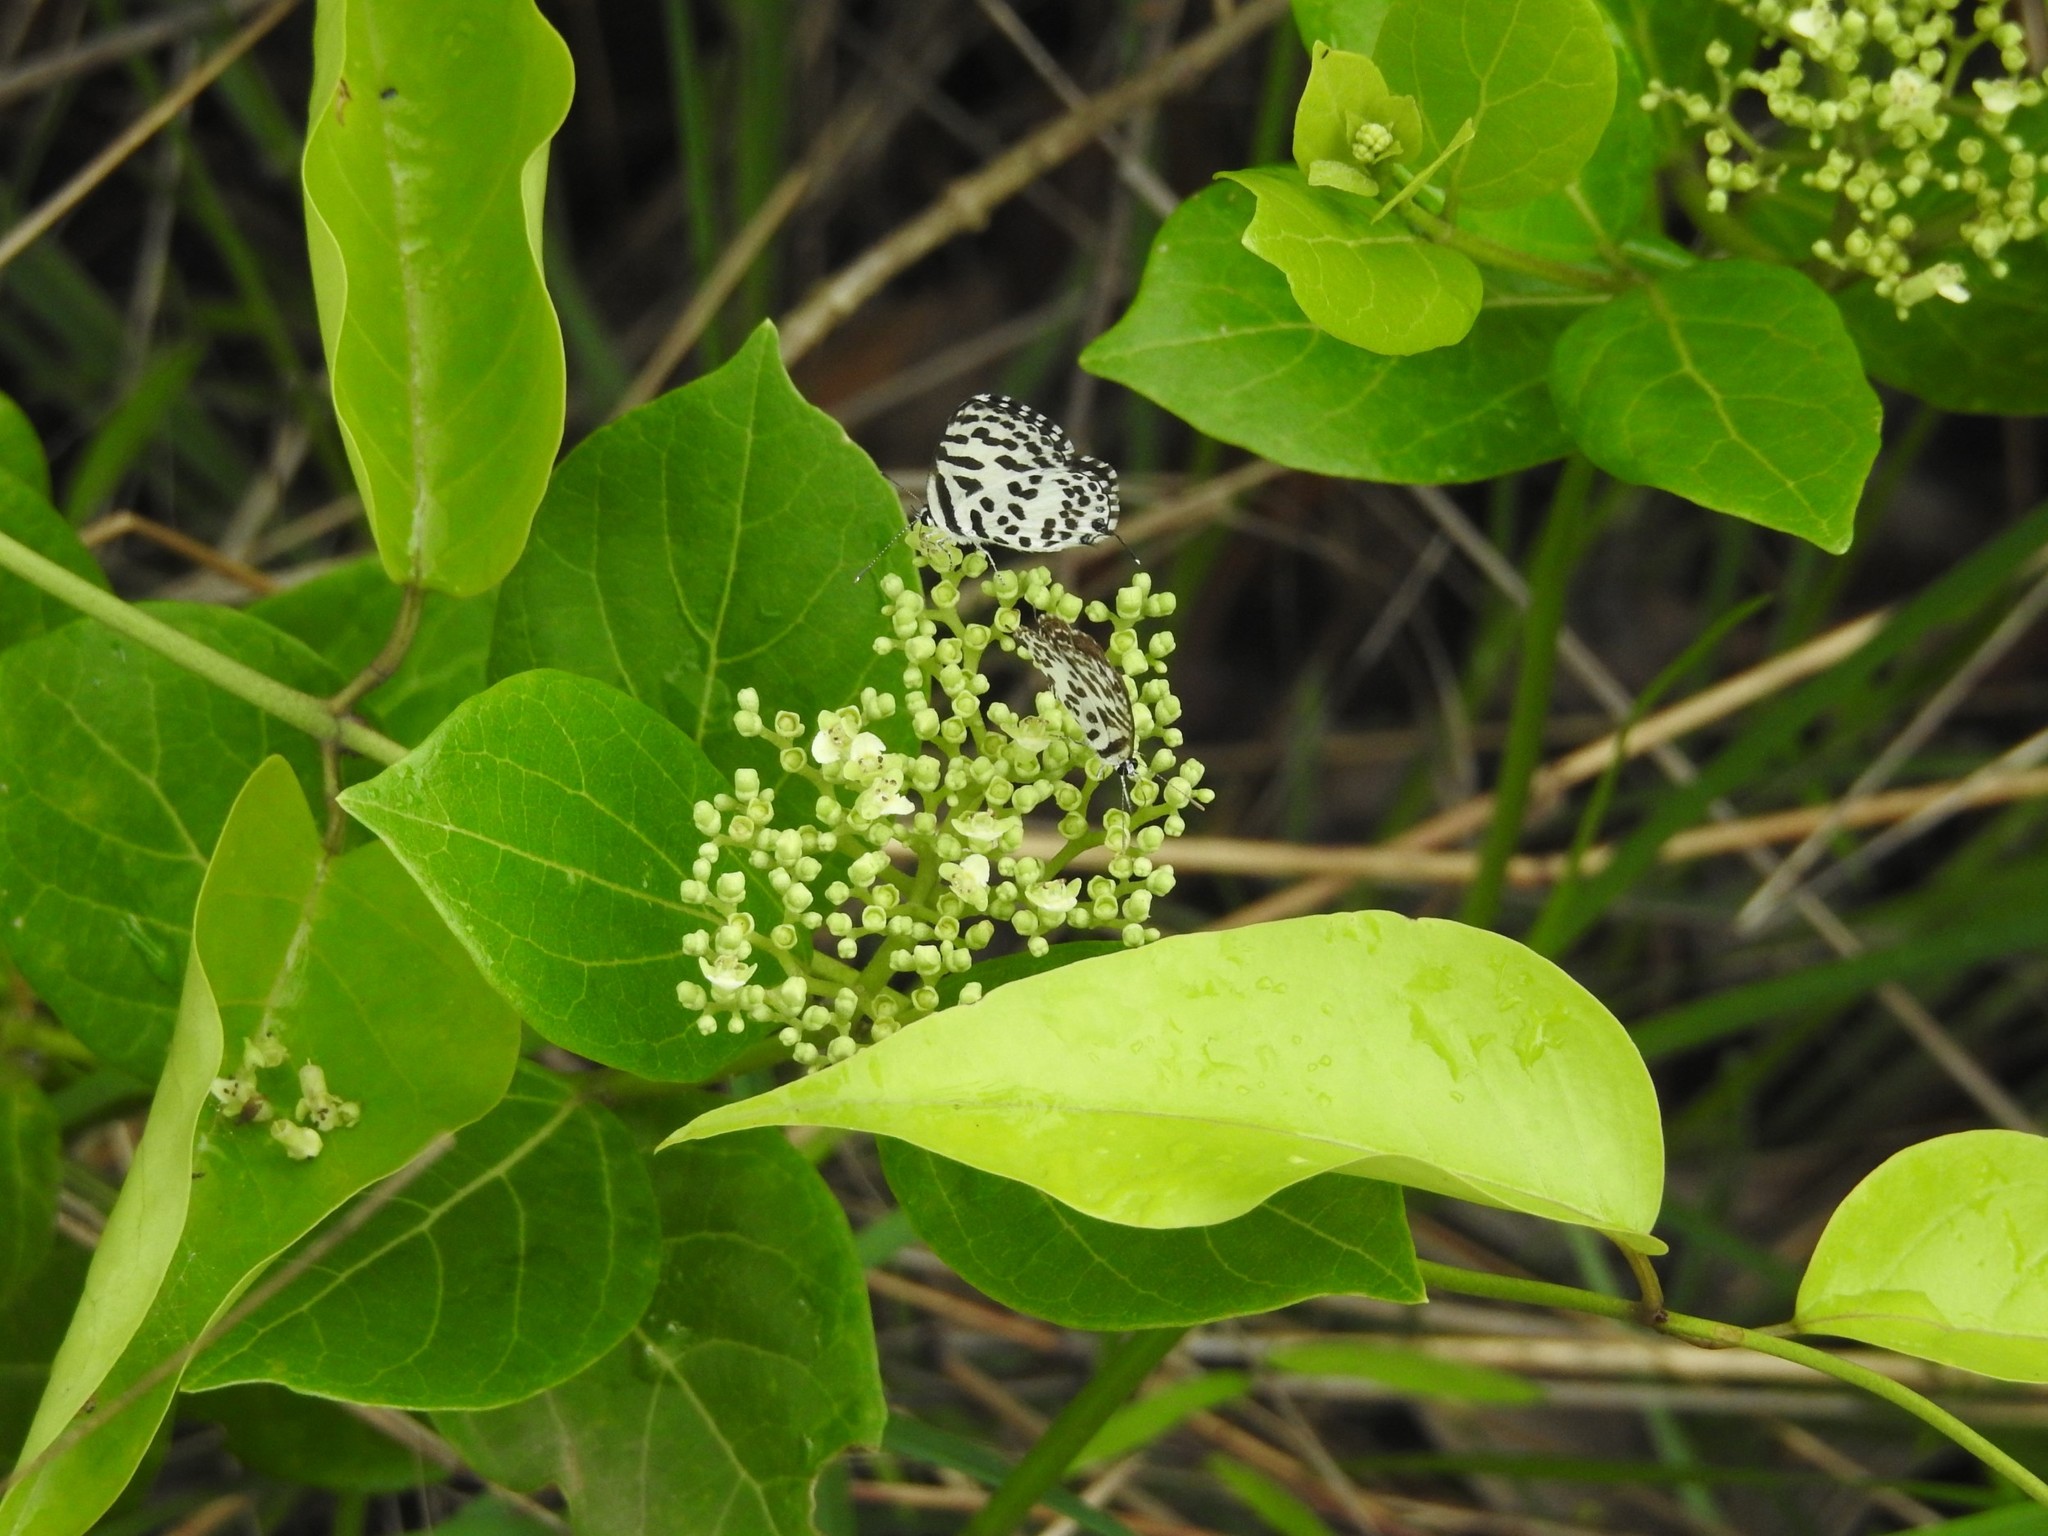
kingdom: Animalia
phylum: Arthropoda
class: Insecta
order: Lepidoptera
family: Lycaenidae
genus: Castalius
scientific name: Castalius rosimon
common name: Common pierrot
